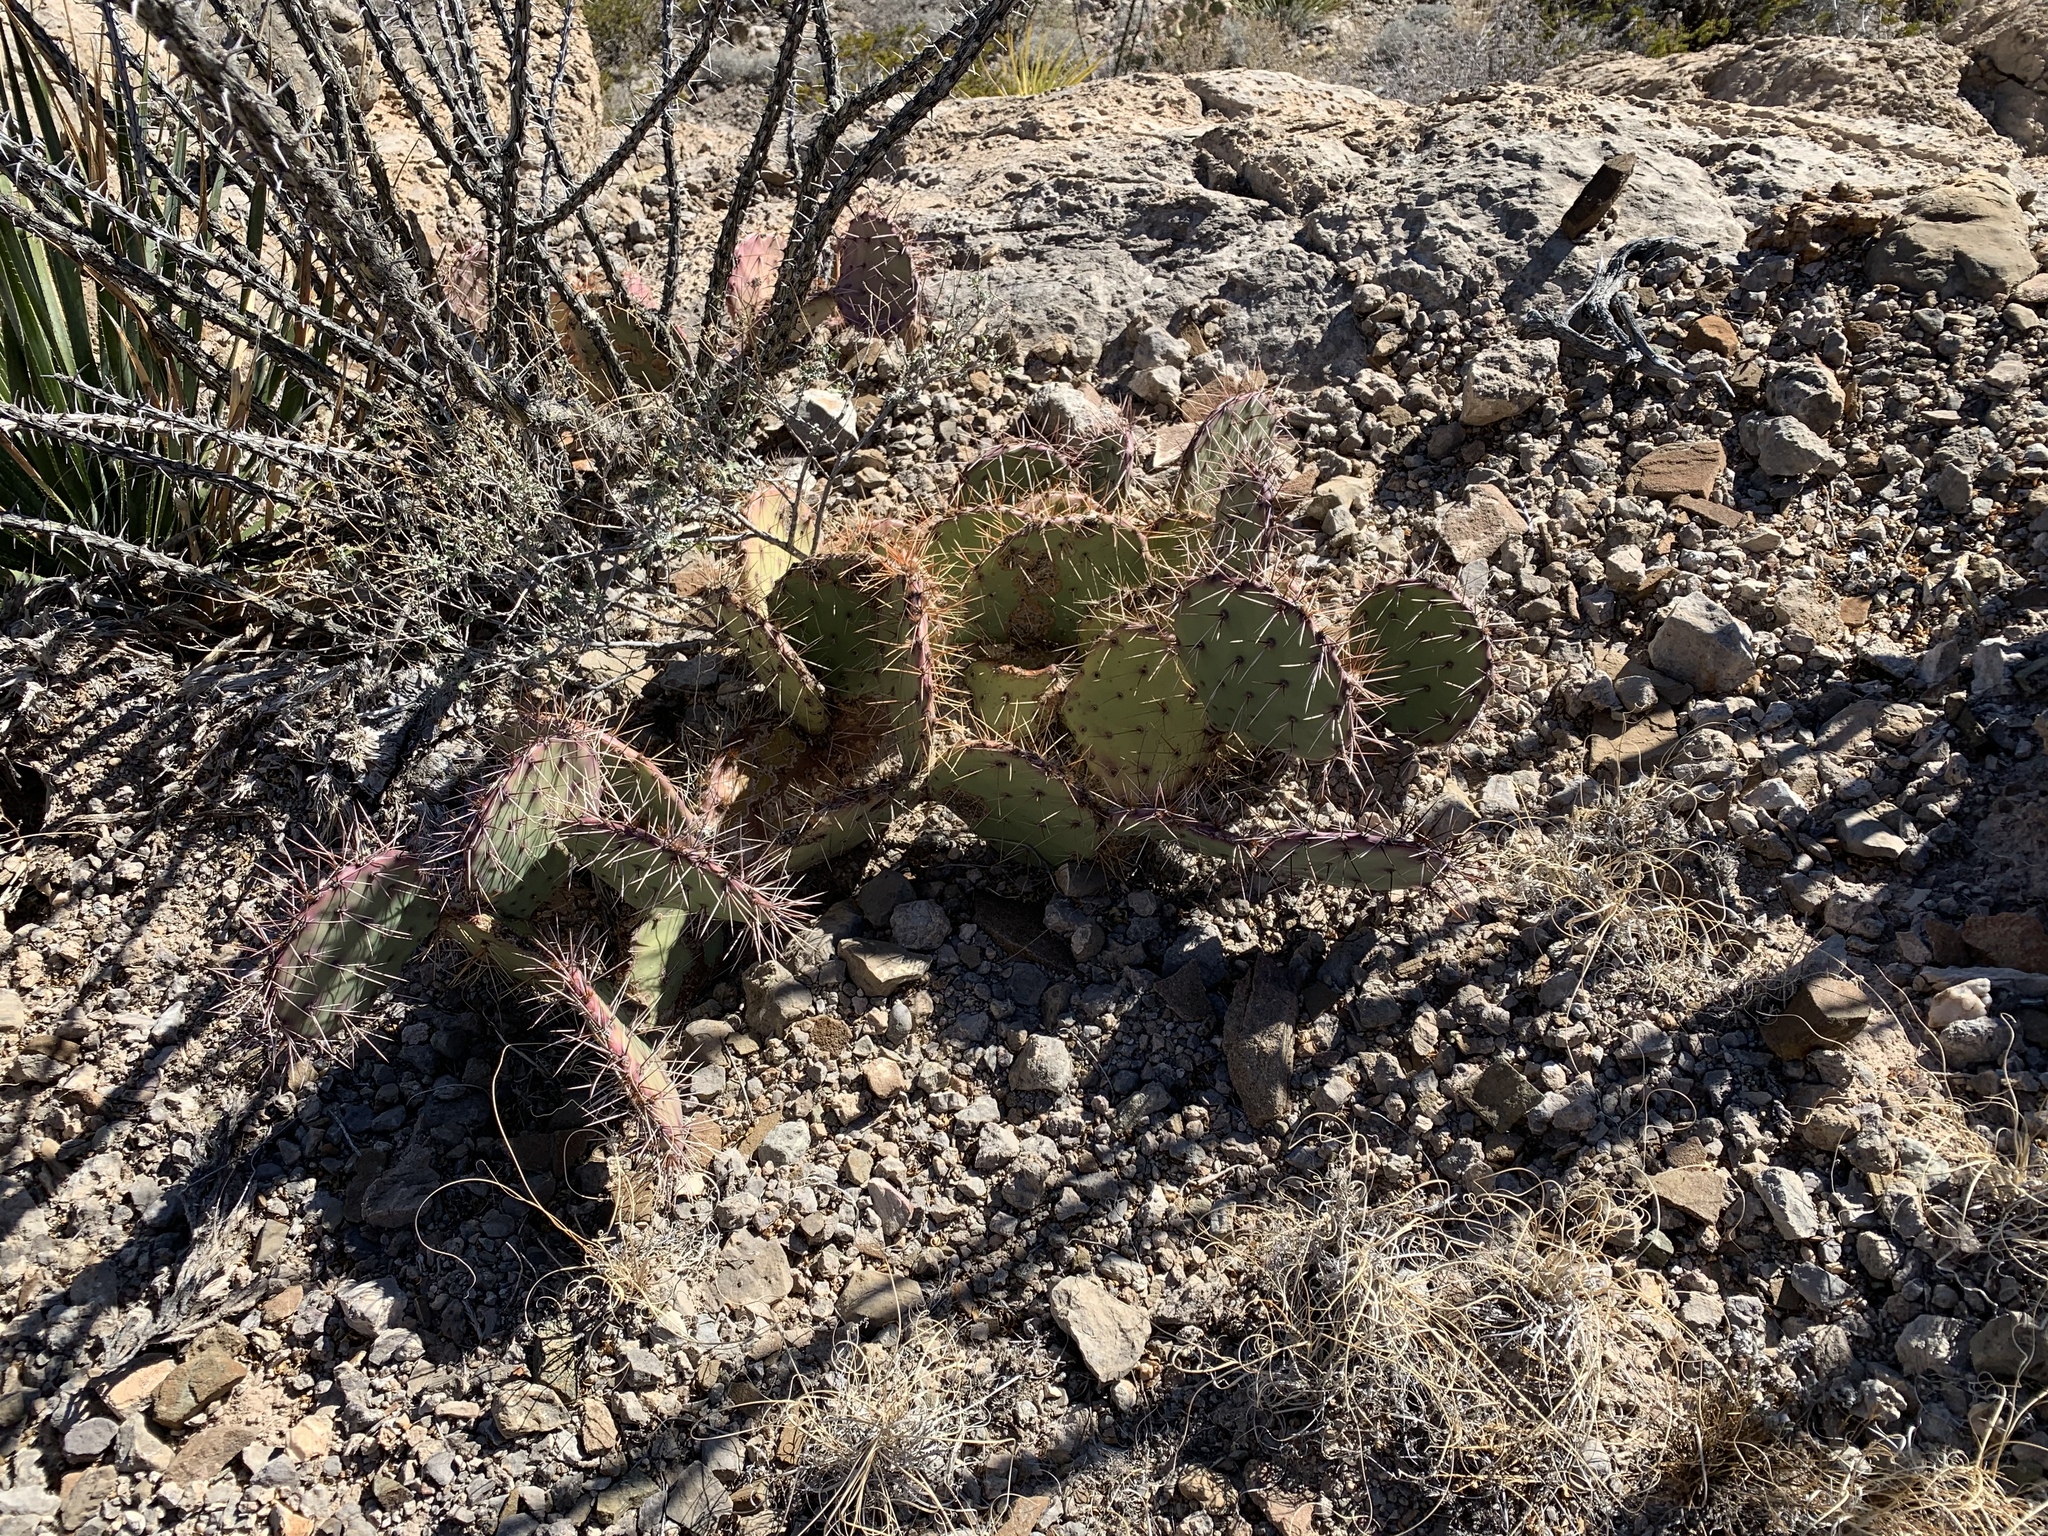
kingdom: Plantae
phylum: Tracheophyta
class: Magnoliopsida
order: Caryophyllales
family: Cactaceae
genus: Opuntia
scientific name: Opuntia phaeacantha
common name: New mexico prickly-pear
